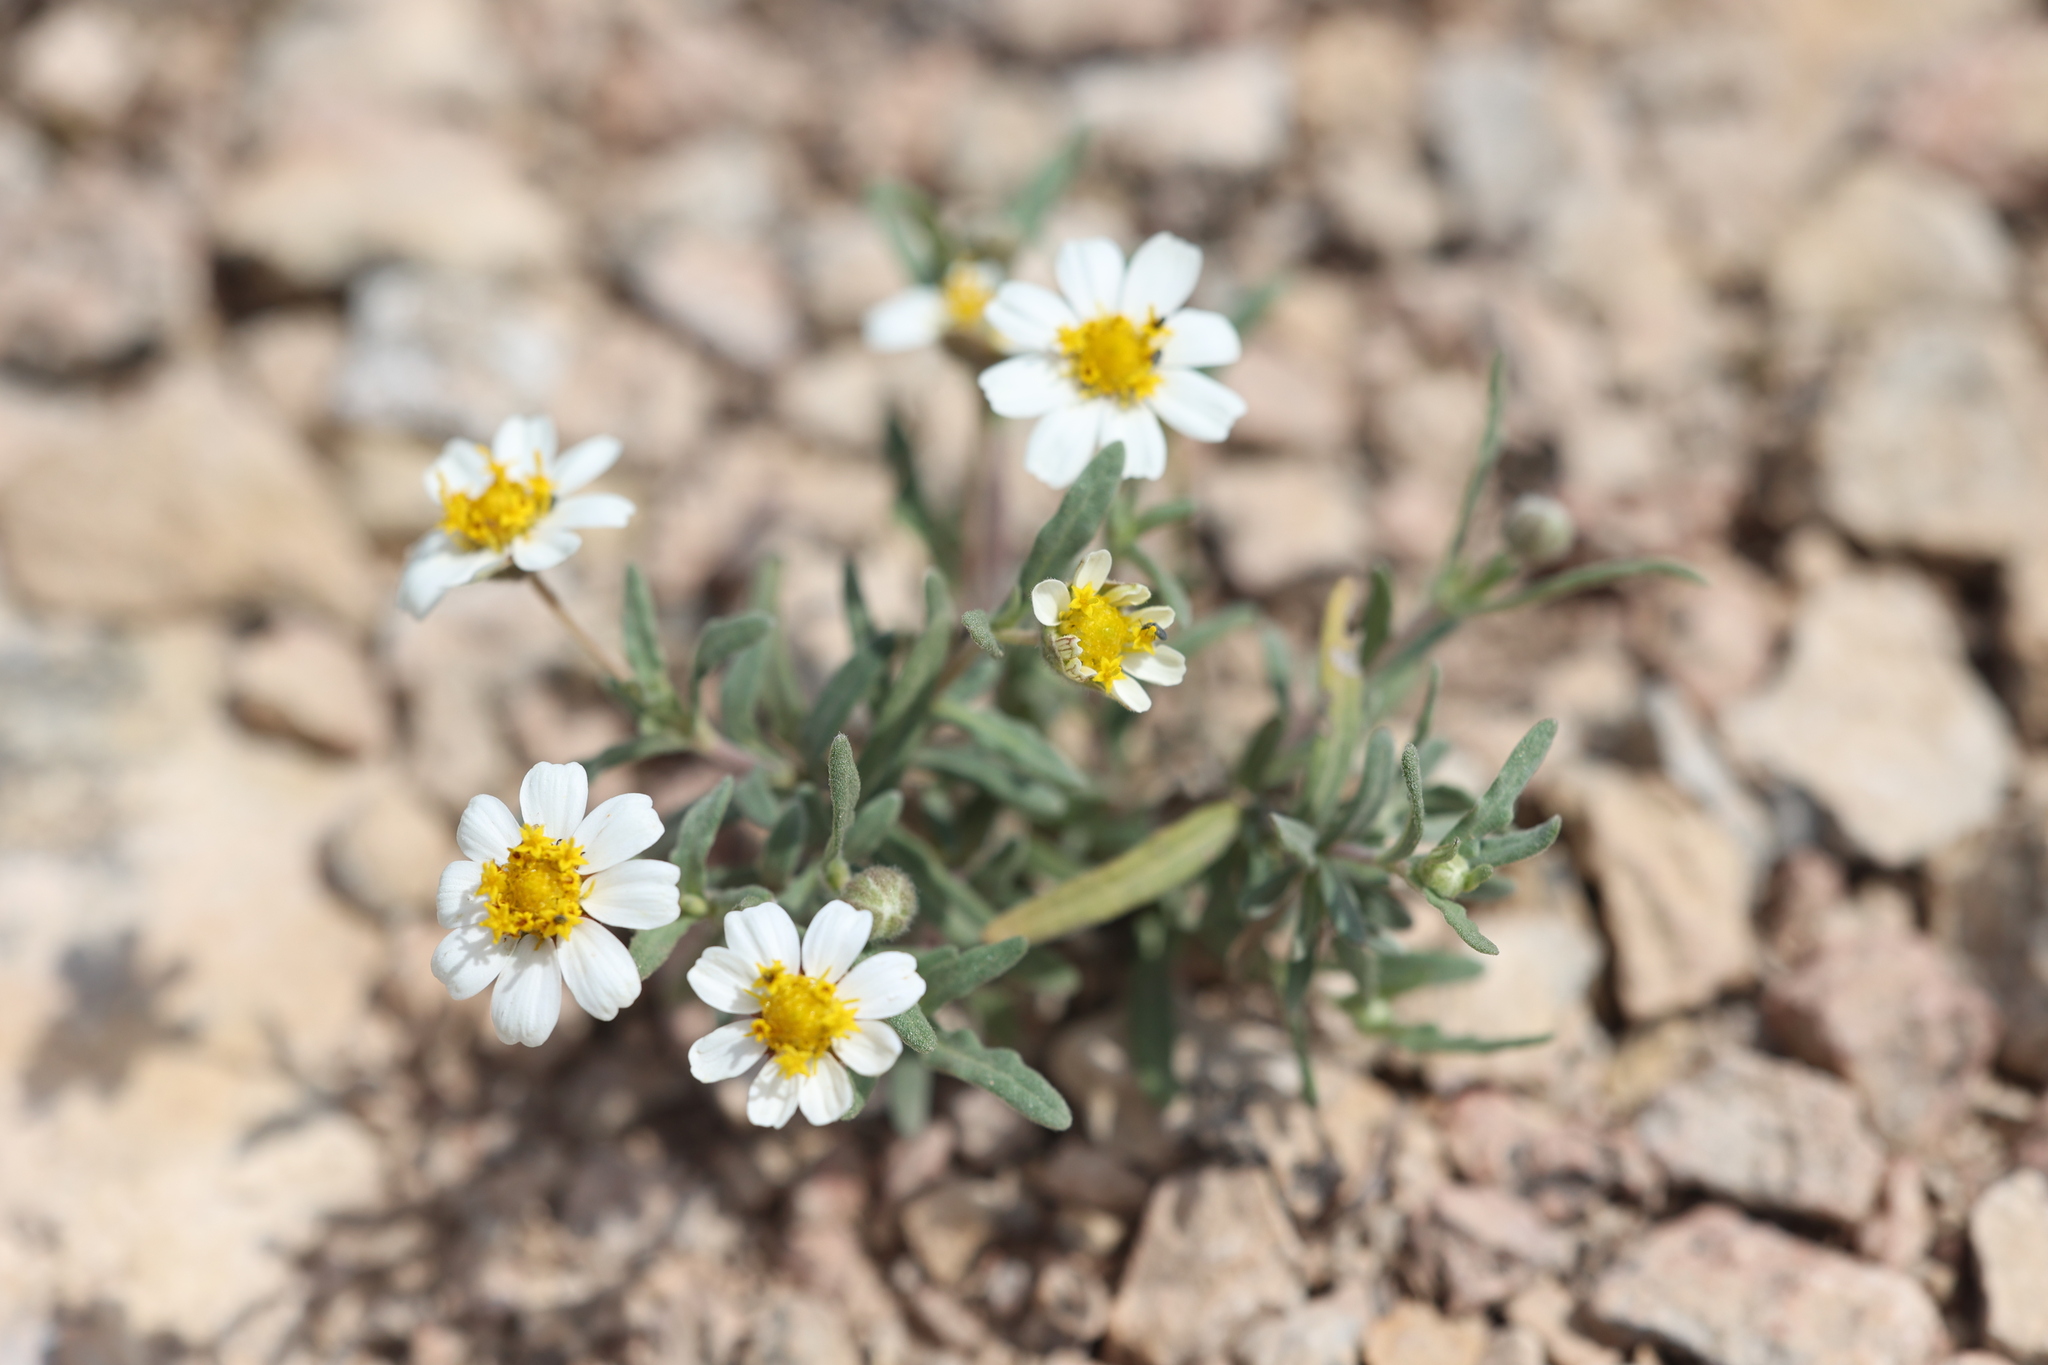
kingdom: Plantae
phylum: Tracheophyta
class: Magnoliopsida
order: Asterales
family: Asteraceae
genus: Melampodium
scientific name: Melampodium leucanthum
